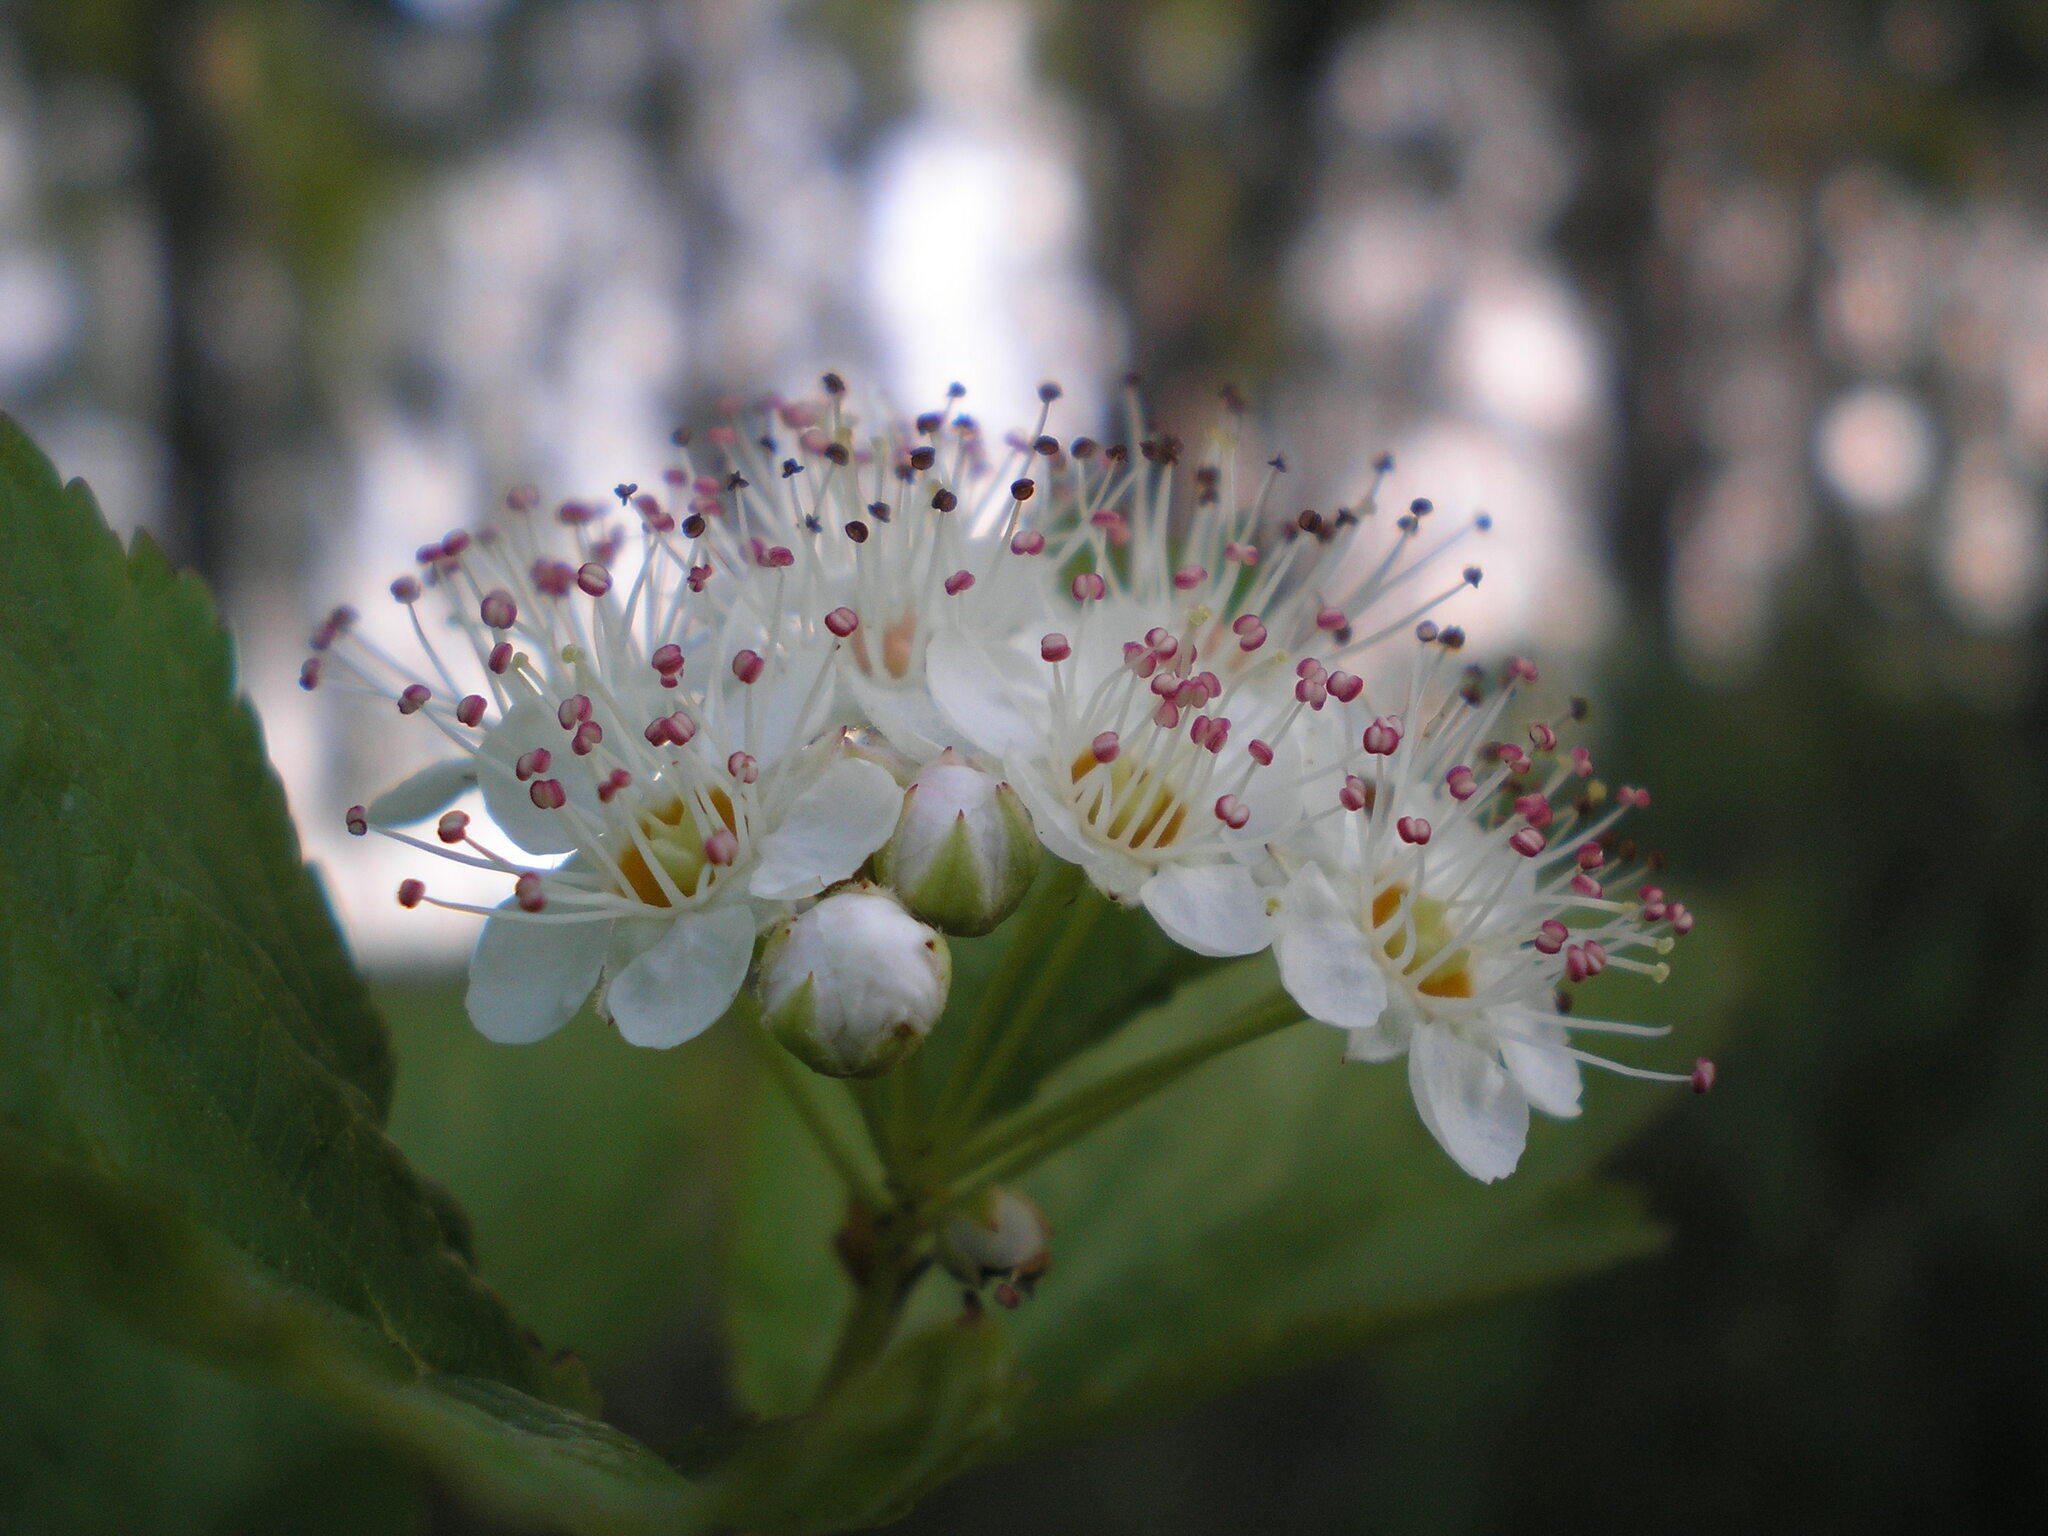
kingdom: Plantae
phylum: Tracheophyta
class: Magnoliopsida
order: Rosales
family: Rosaceae
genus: Physocarpus
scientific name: Physocarpus opulifolius
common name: Ninebark
